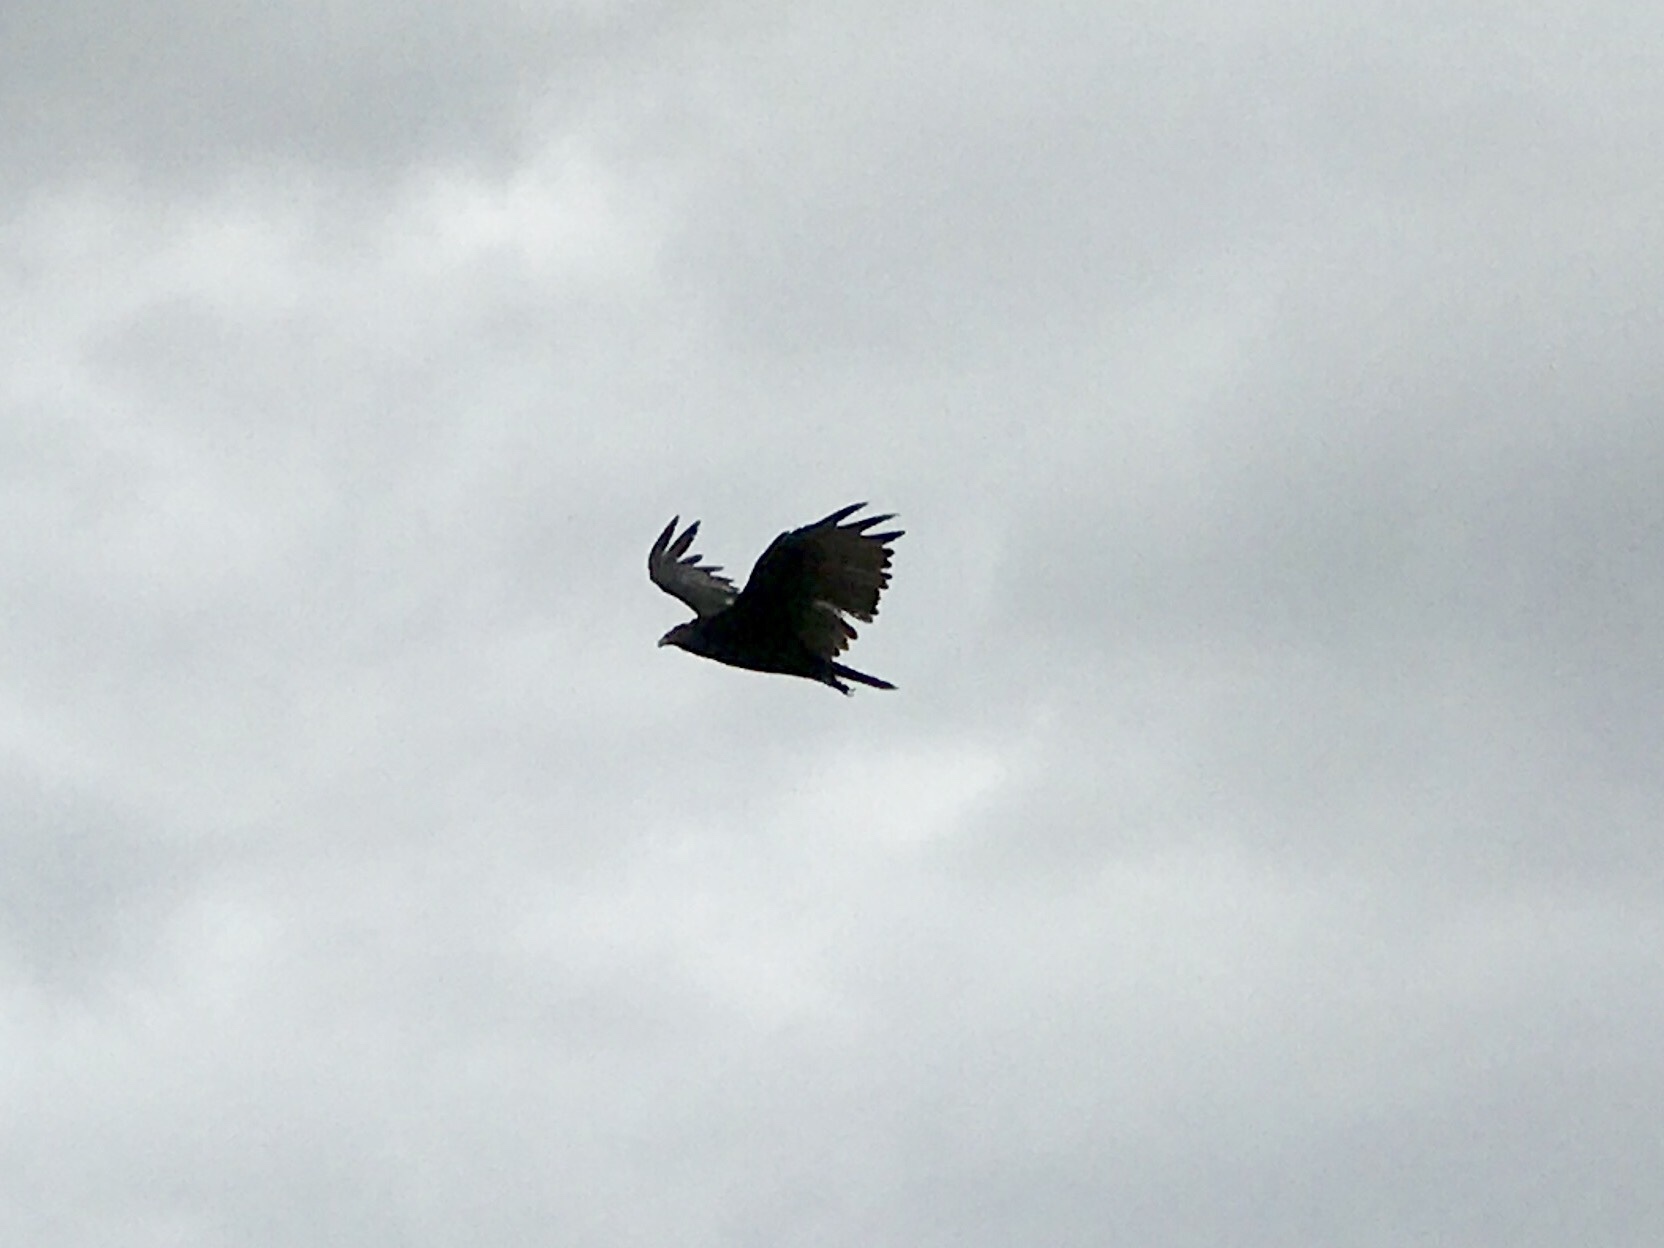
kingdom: Animalia
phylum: Chordata
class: Aves
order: Accipitriformes
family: Cathartidae
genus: Cathartes
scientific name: Cathartes aura
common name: Turkey vulture
